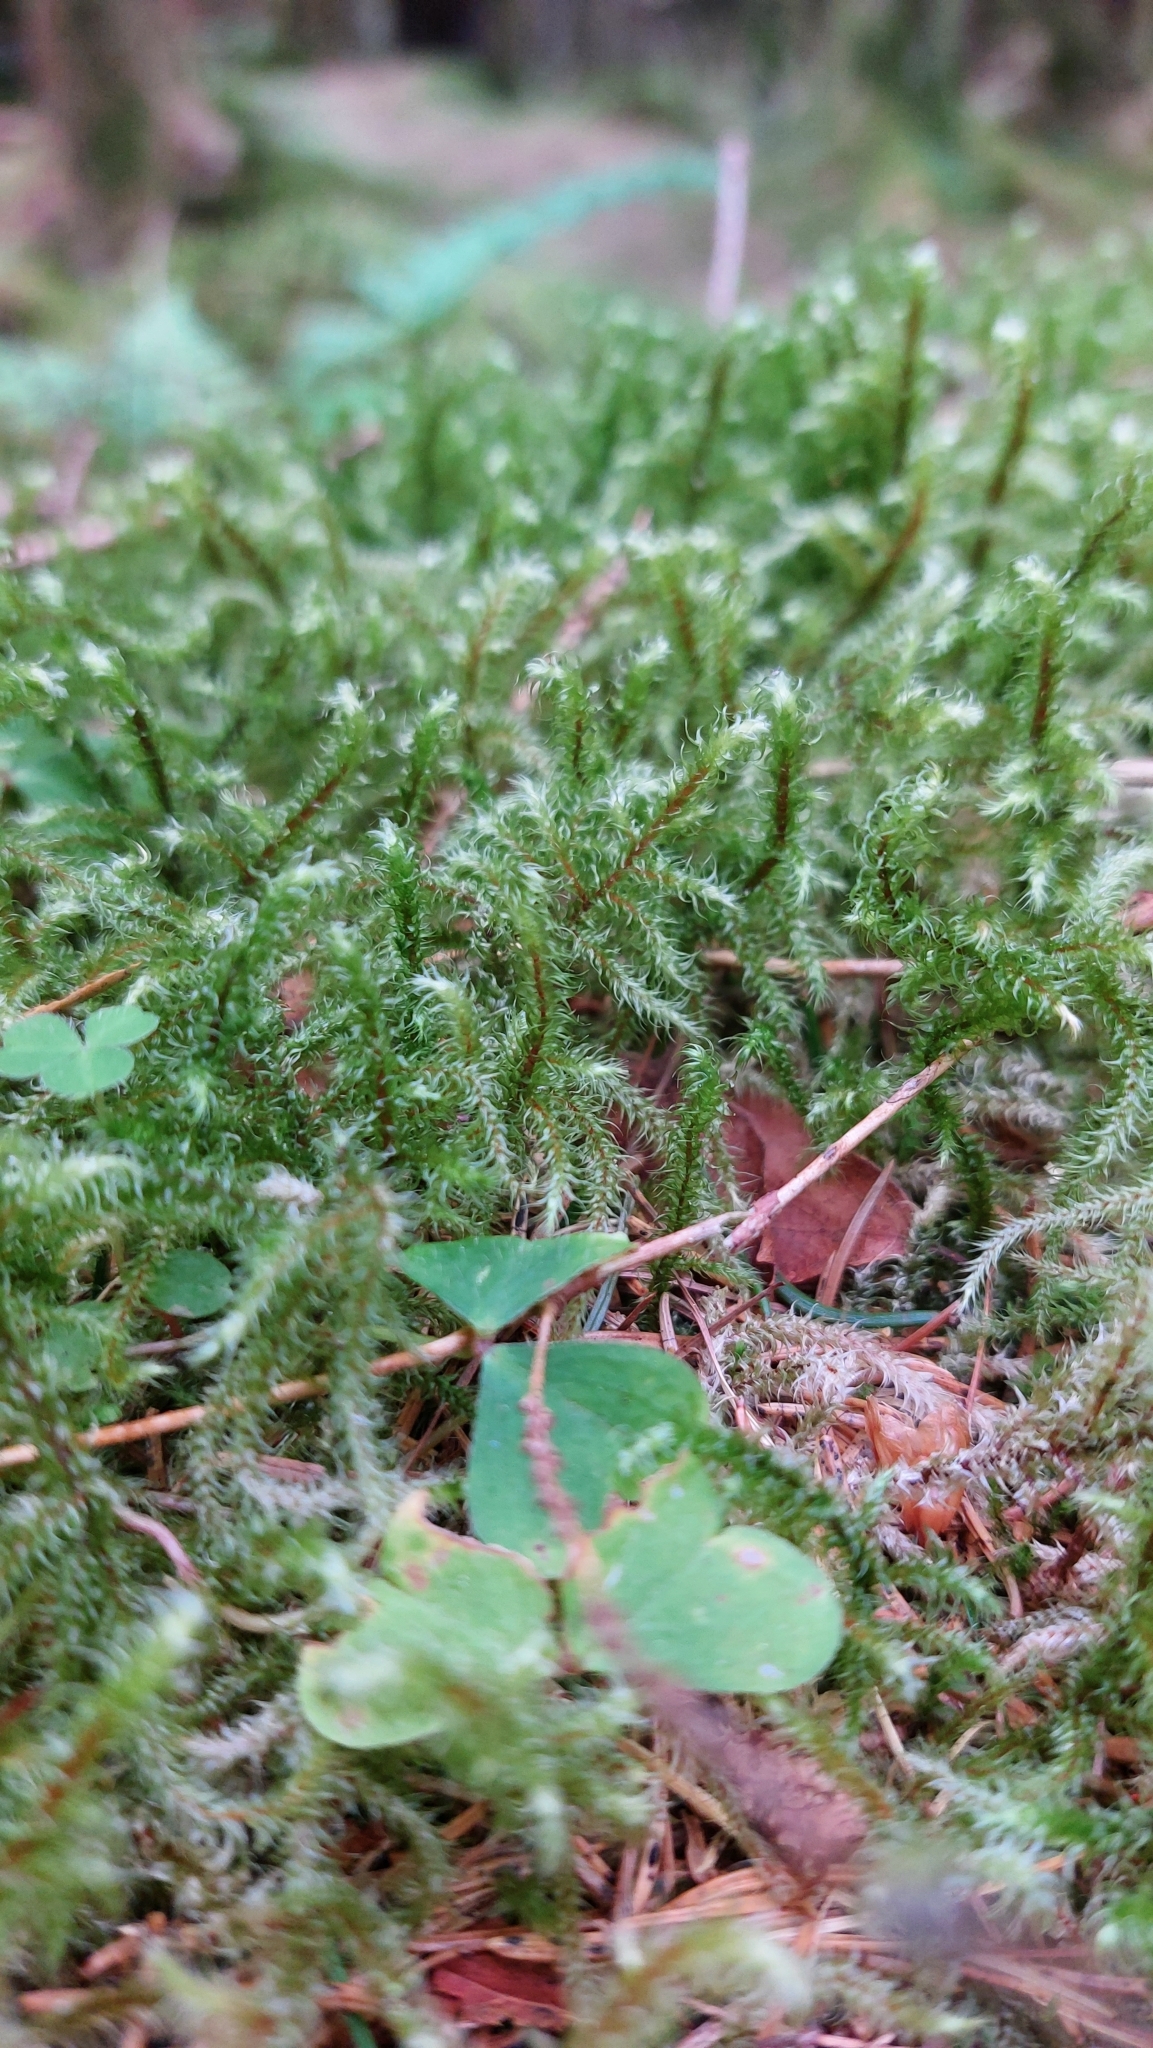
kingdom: Plantae
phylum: Bryophyta
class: Bryopsida
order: Hypnales
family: Hylocomiaceae
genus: Rhytidiadelphus
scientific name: Rhytidiadelphus loreus
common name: Lanky moss
